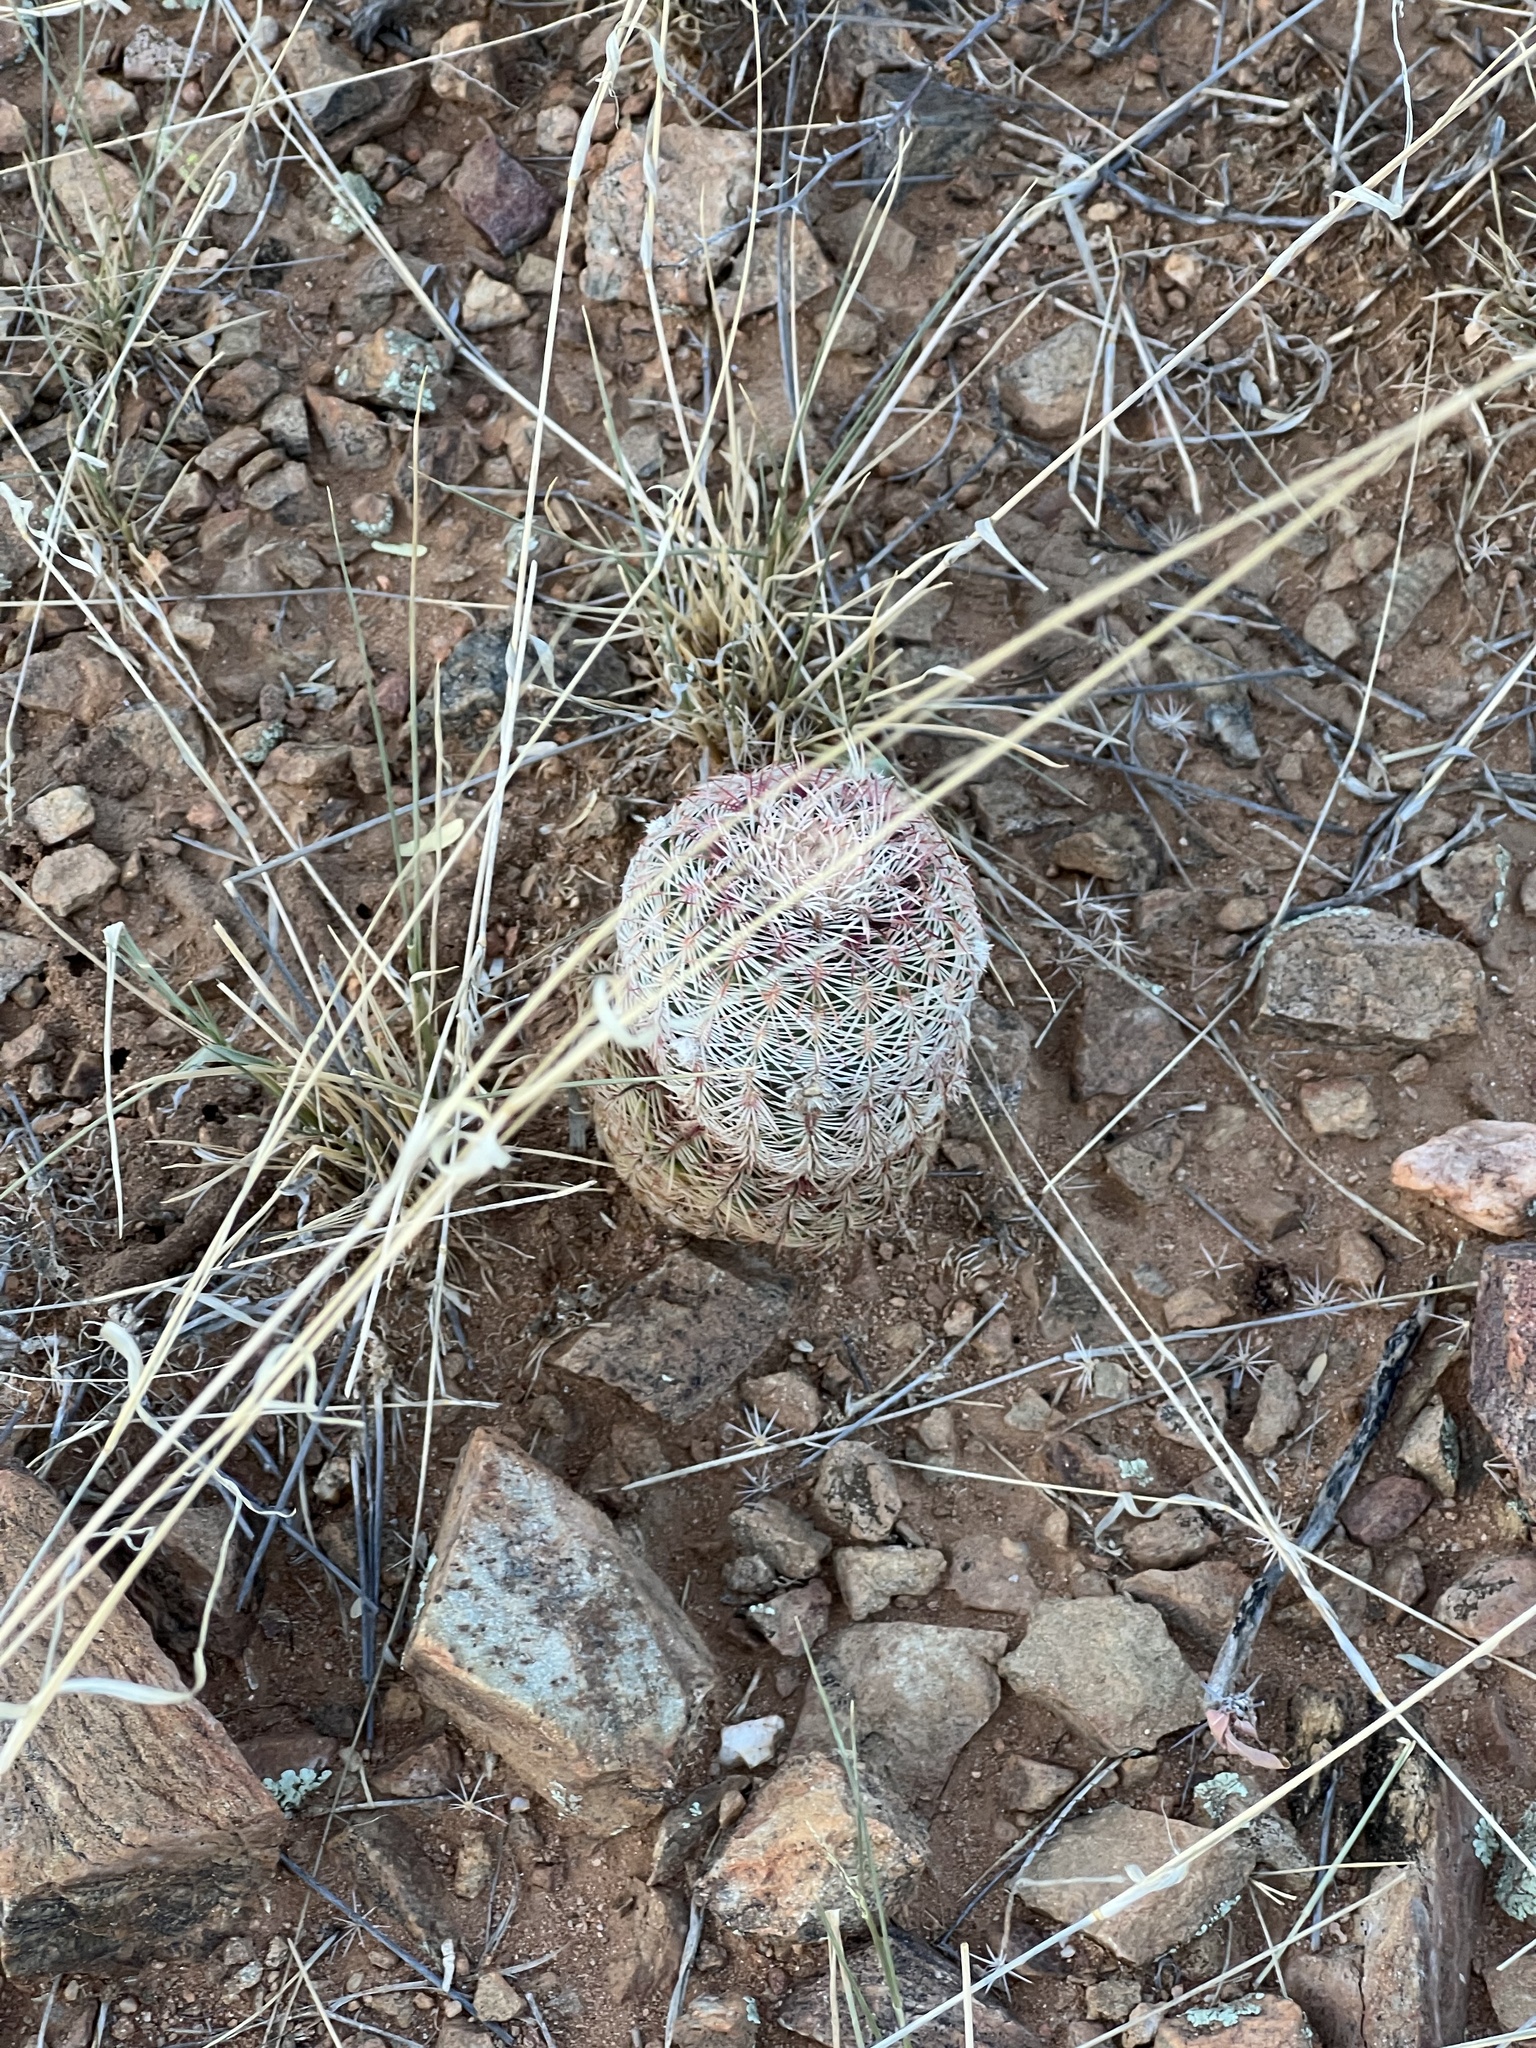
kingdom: Plantae
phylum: Tracheophyta
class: Magnoliopsida
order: Caryophyllales
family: Cactaceae
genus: Echinocereus
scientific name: Echinocereus rigidissimus
